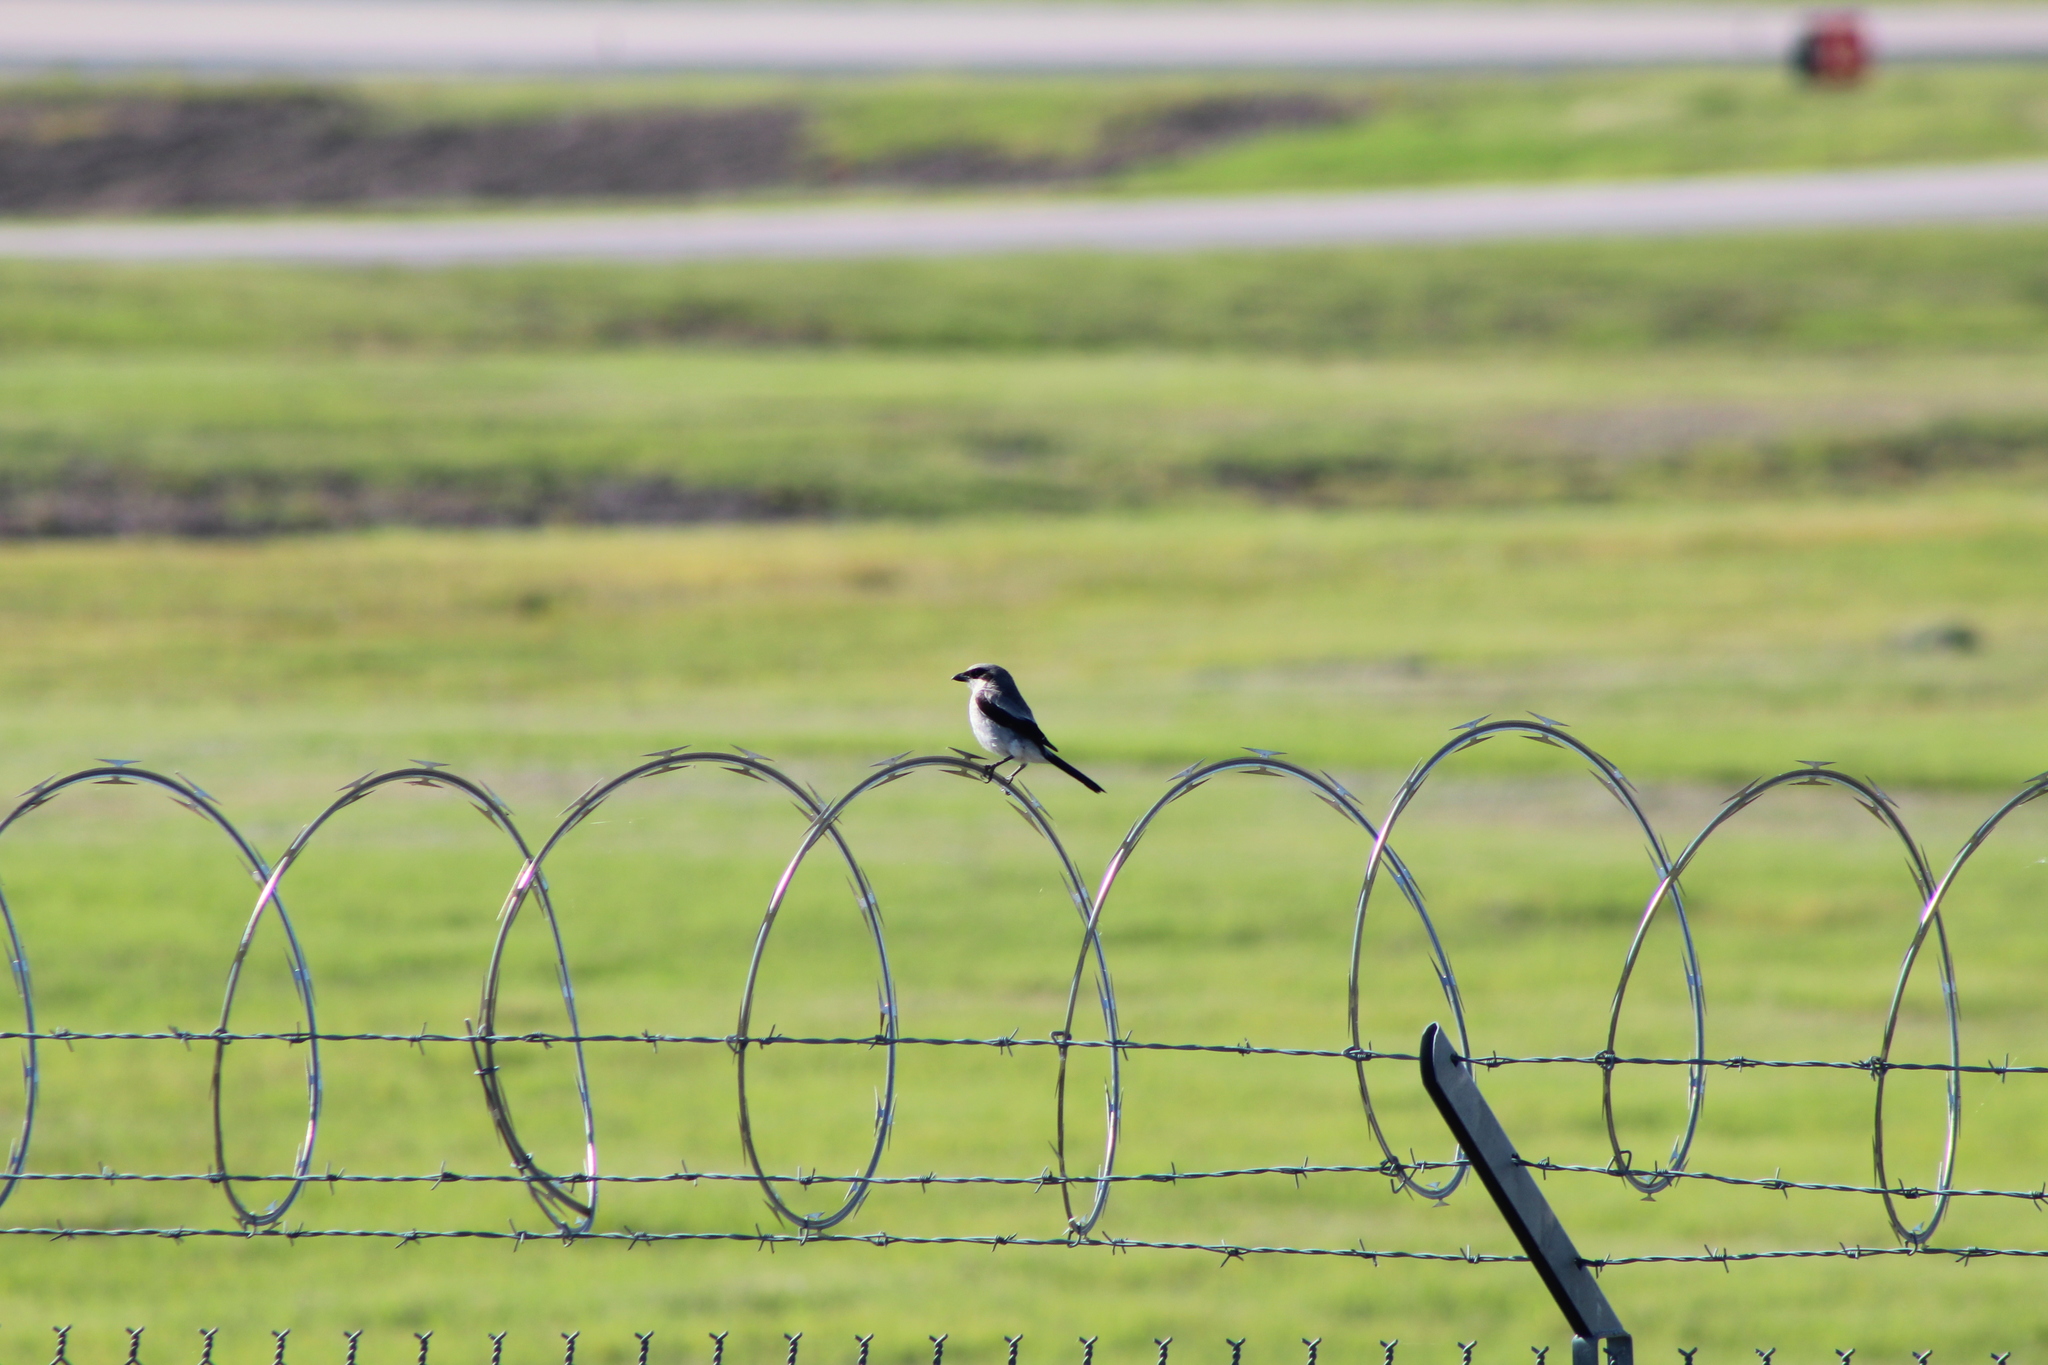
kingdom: Animalia
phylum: Chordata
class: Aves
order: Passeriformes
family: Laniidae
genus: Lanius
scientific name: Lanius ludovicianus
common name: Loggerhead shrike
